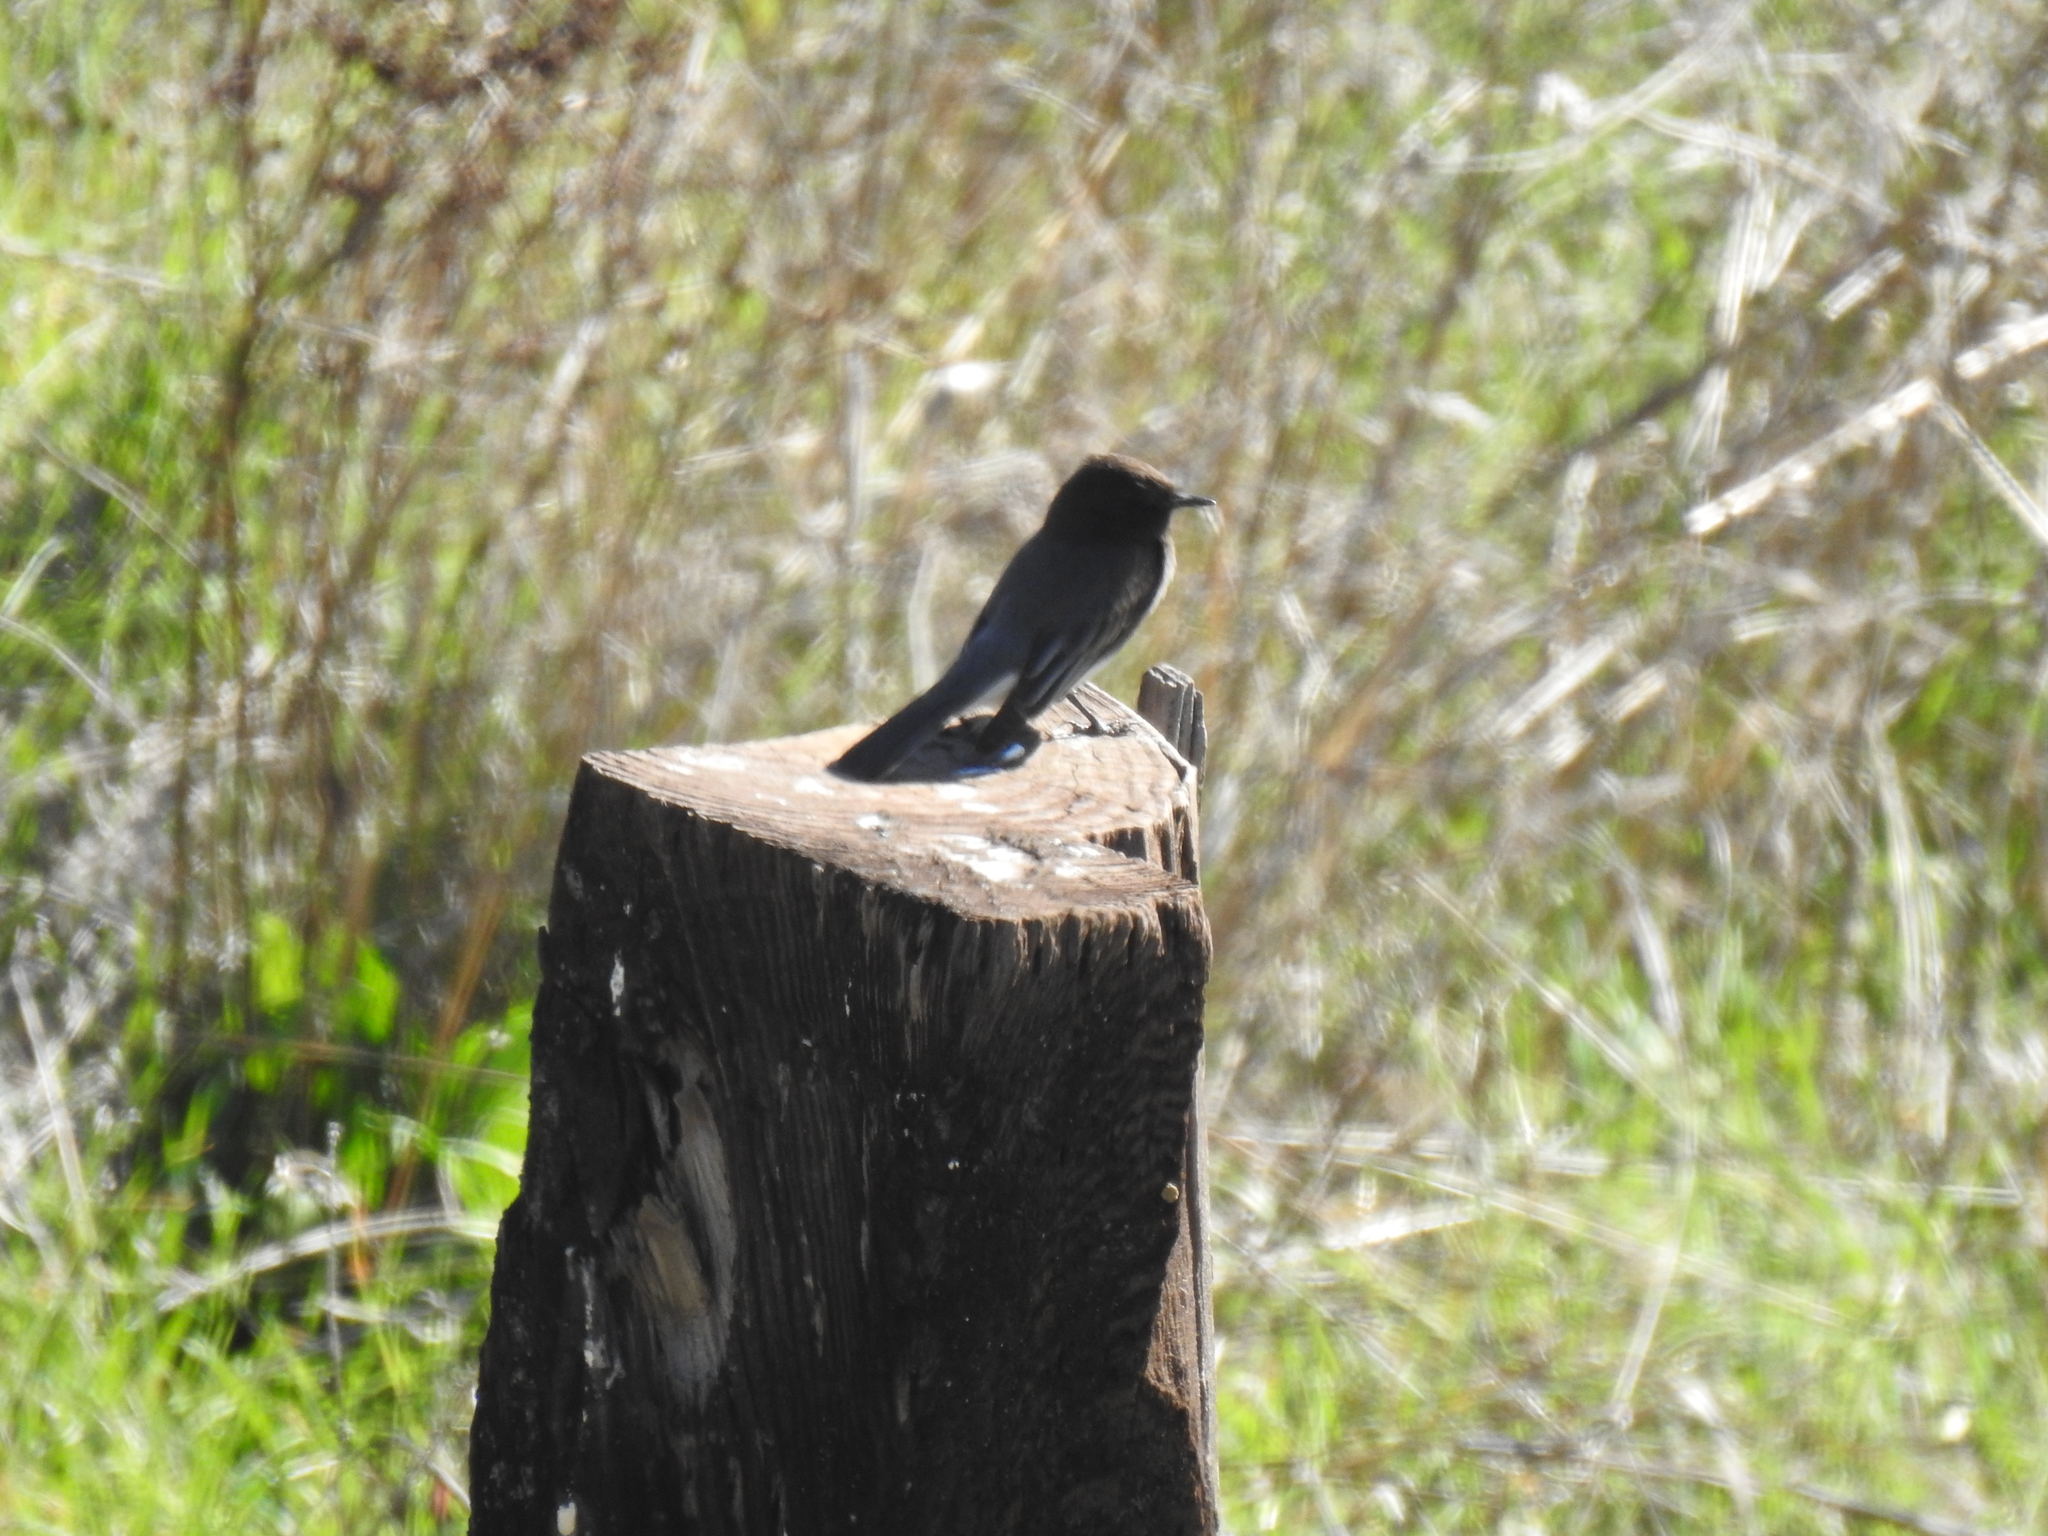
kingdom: Animalia
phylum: Chordata
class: Aves
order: Passeriformes
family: Tyrannidae
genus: Sayornis
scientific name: Sayornis nigricans
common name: Black phoebe
